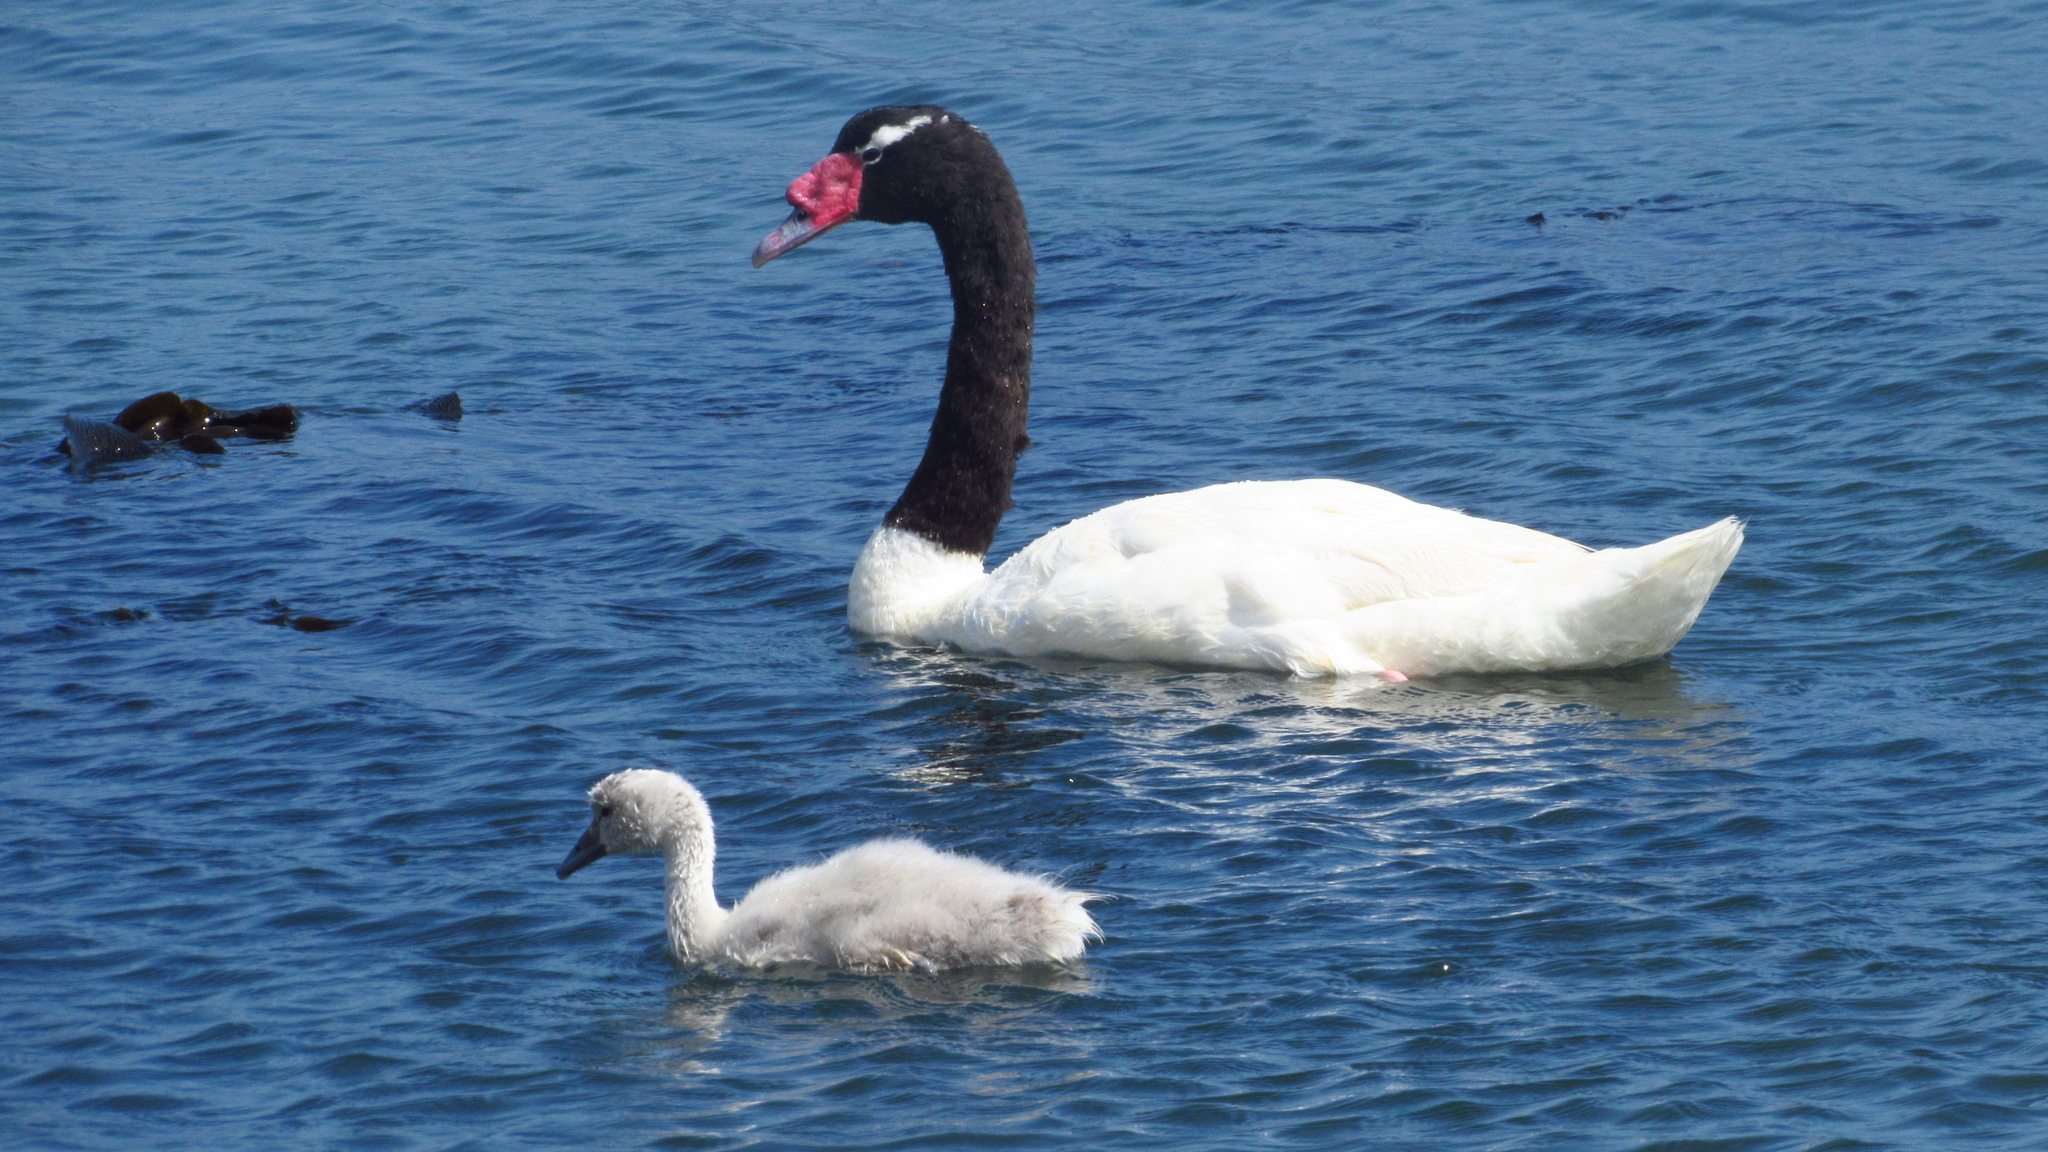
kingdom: Animalia
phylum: Chordata
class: Aves
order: Anseriformes
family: Anatidae
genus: Cygnus
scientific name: Cygnus melancoryphus
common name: Black-necked swan
